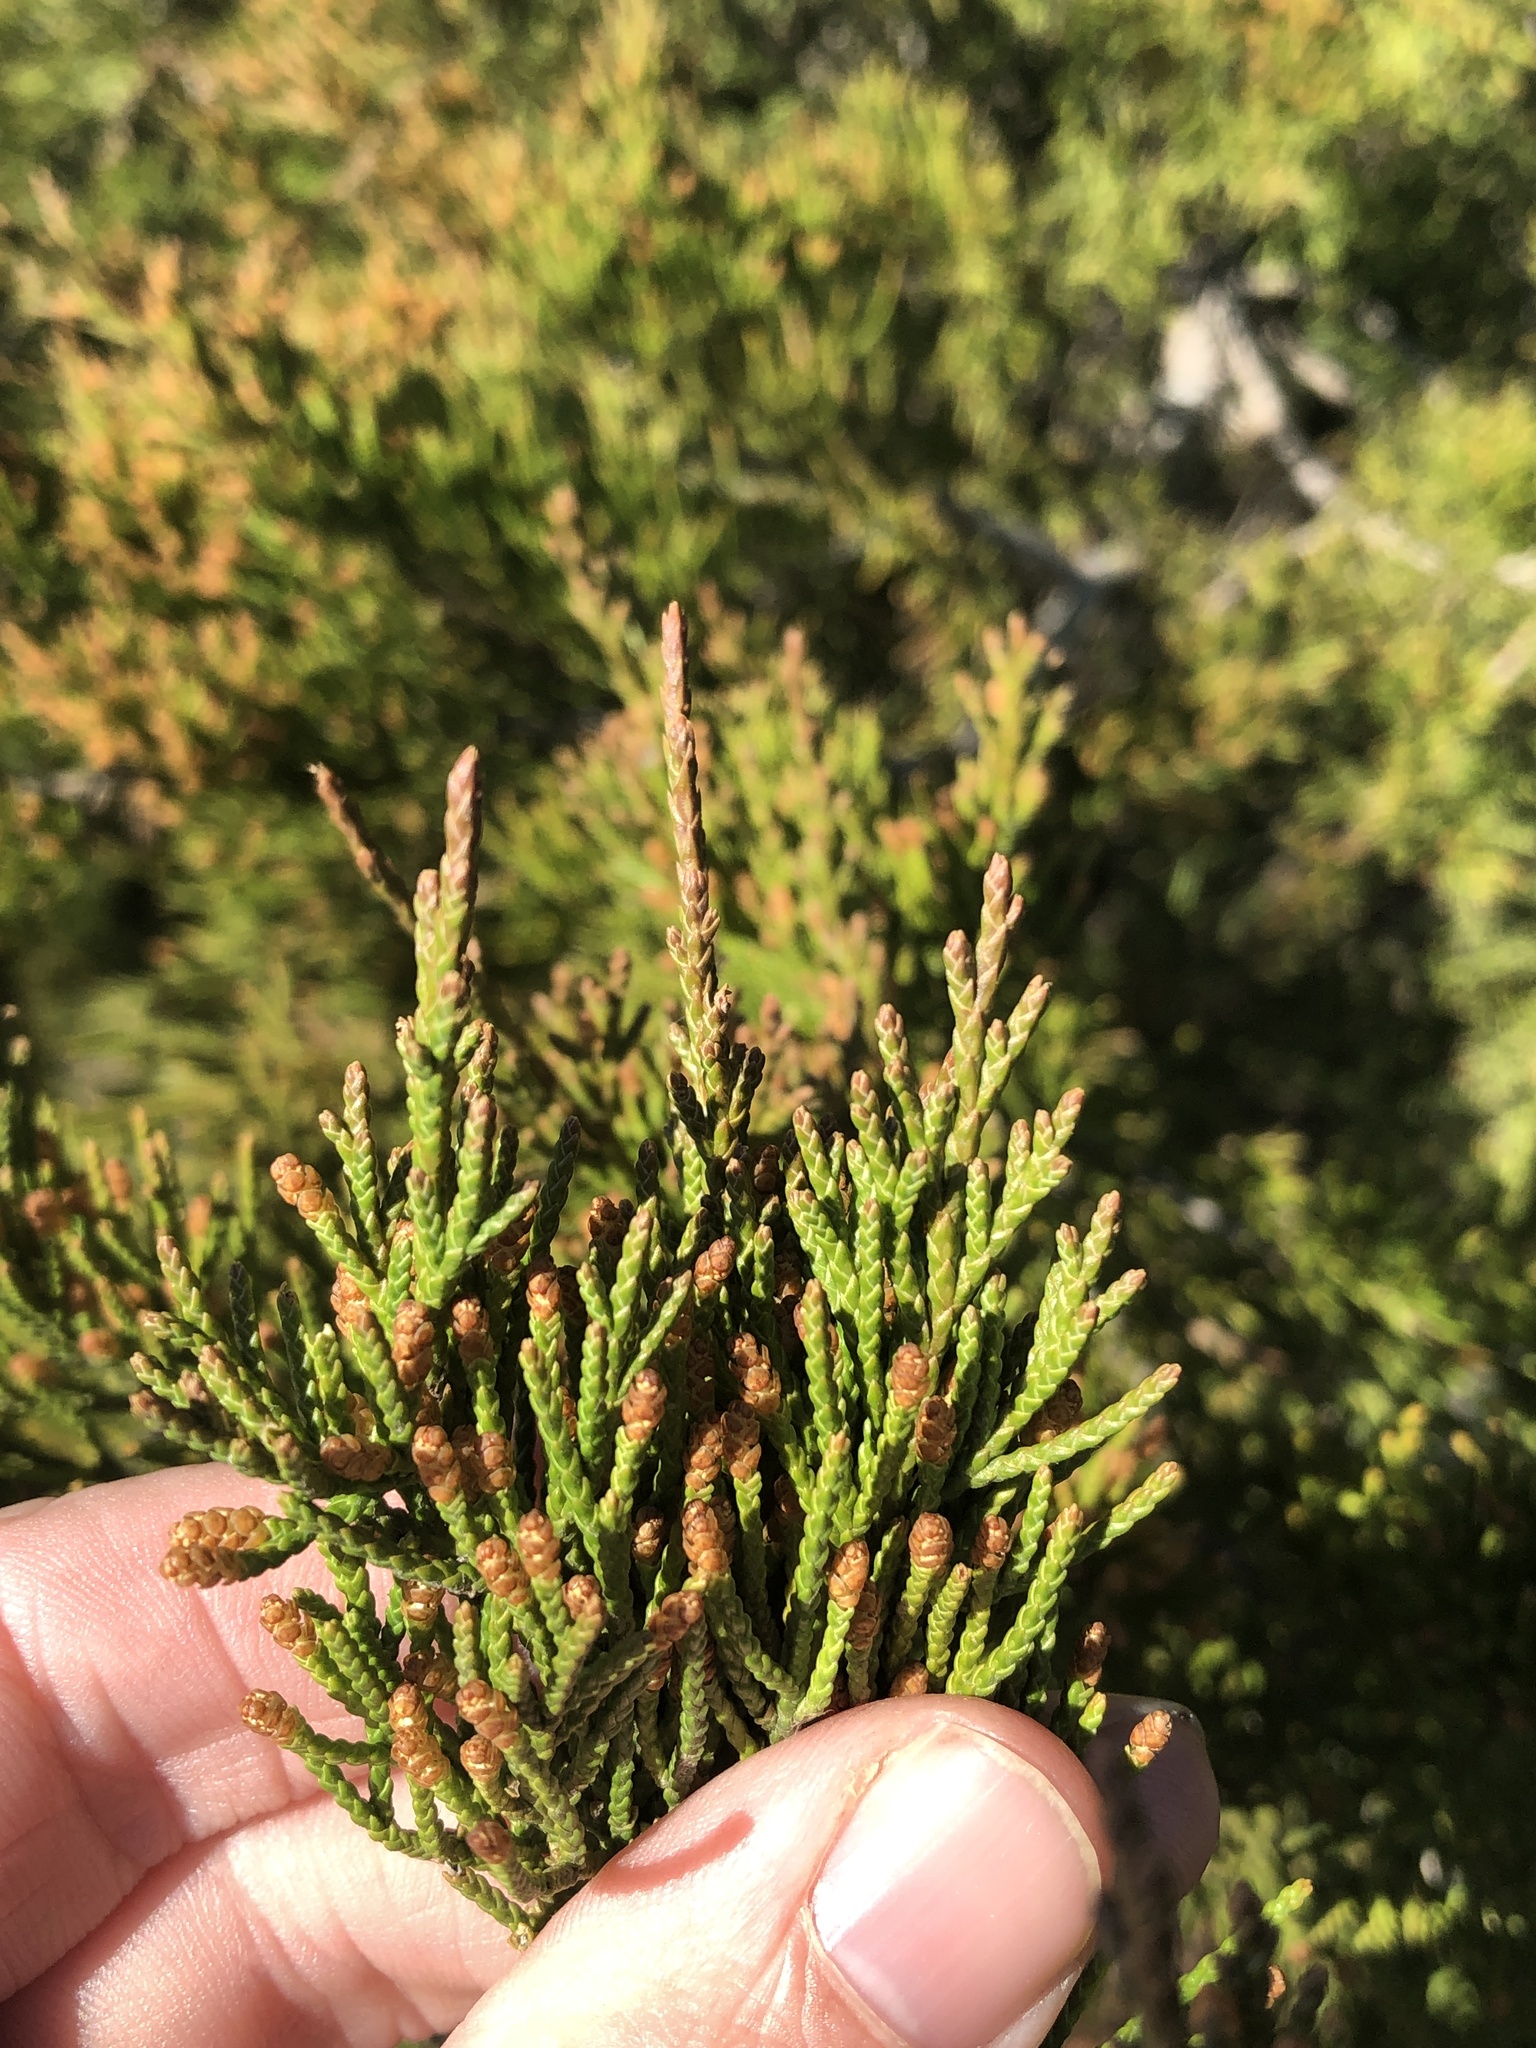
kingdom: Plantae
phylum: Tracheophyta
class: Pinopsida
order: Pinales
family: Cupressaceae
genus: Juniperus
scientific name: Juniperus virginiana
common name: Red juniper
